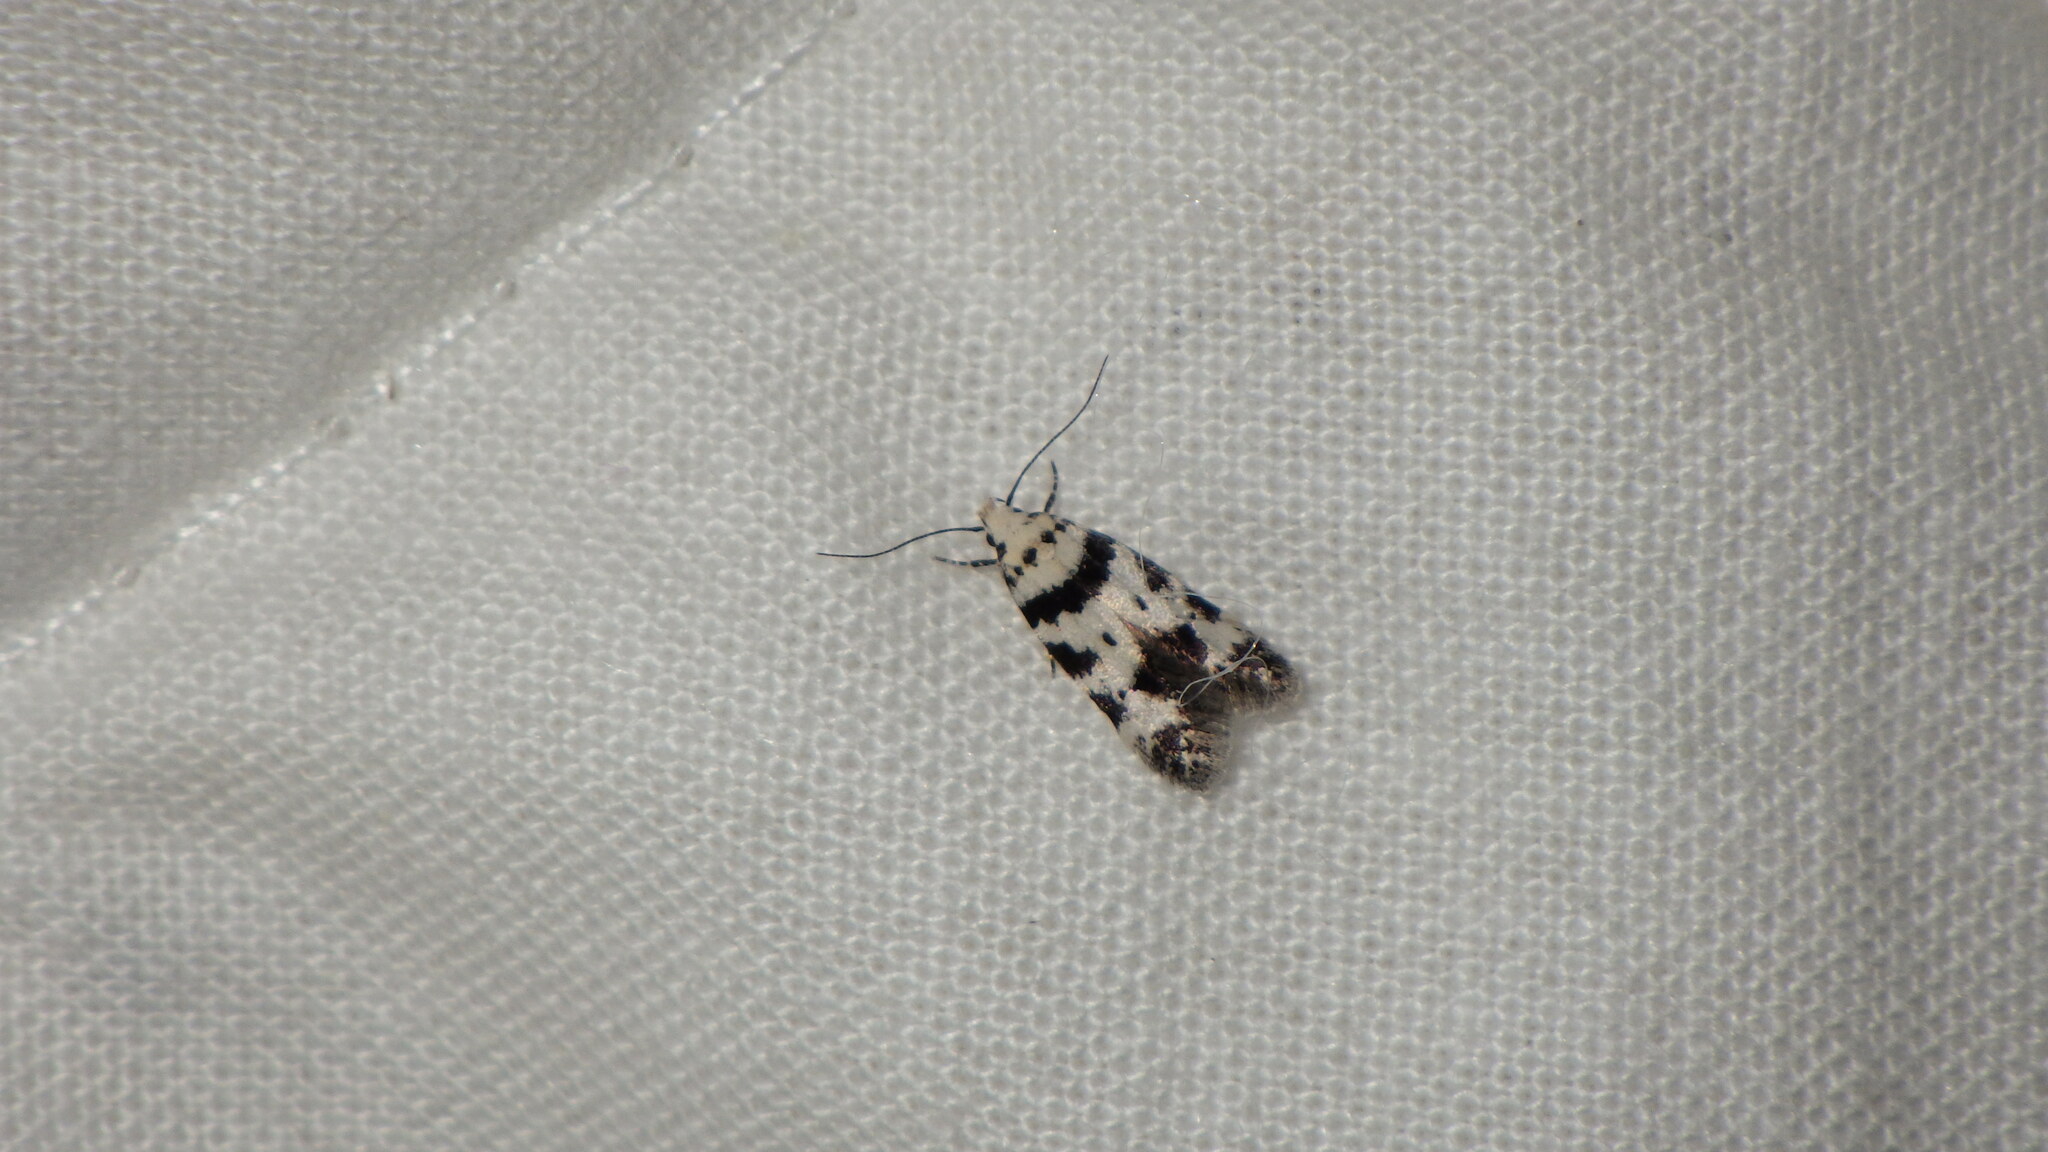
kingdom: Animalia
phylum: Arthropoda
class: Insecta
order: Lepidoptera
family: Gelechiidae
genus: Pseudotelphusa
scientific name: Pseudotelphusa scalella
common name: Black-spotted groundling
